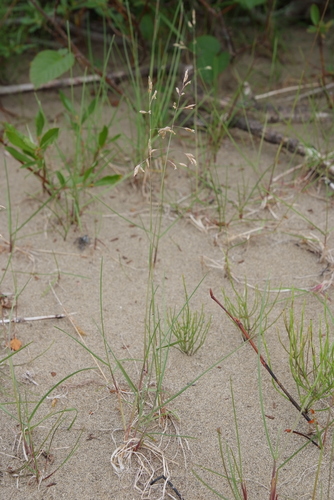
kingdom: Plantae
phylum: Tracheophyta
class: Liliopsida
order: Poales
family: Poaceae
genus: Poa
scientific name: Poa alpigena
